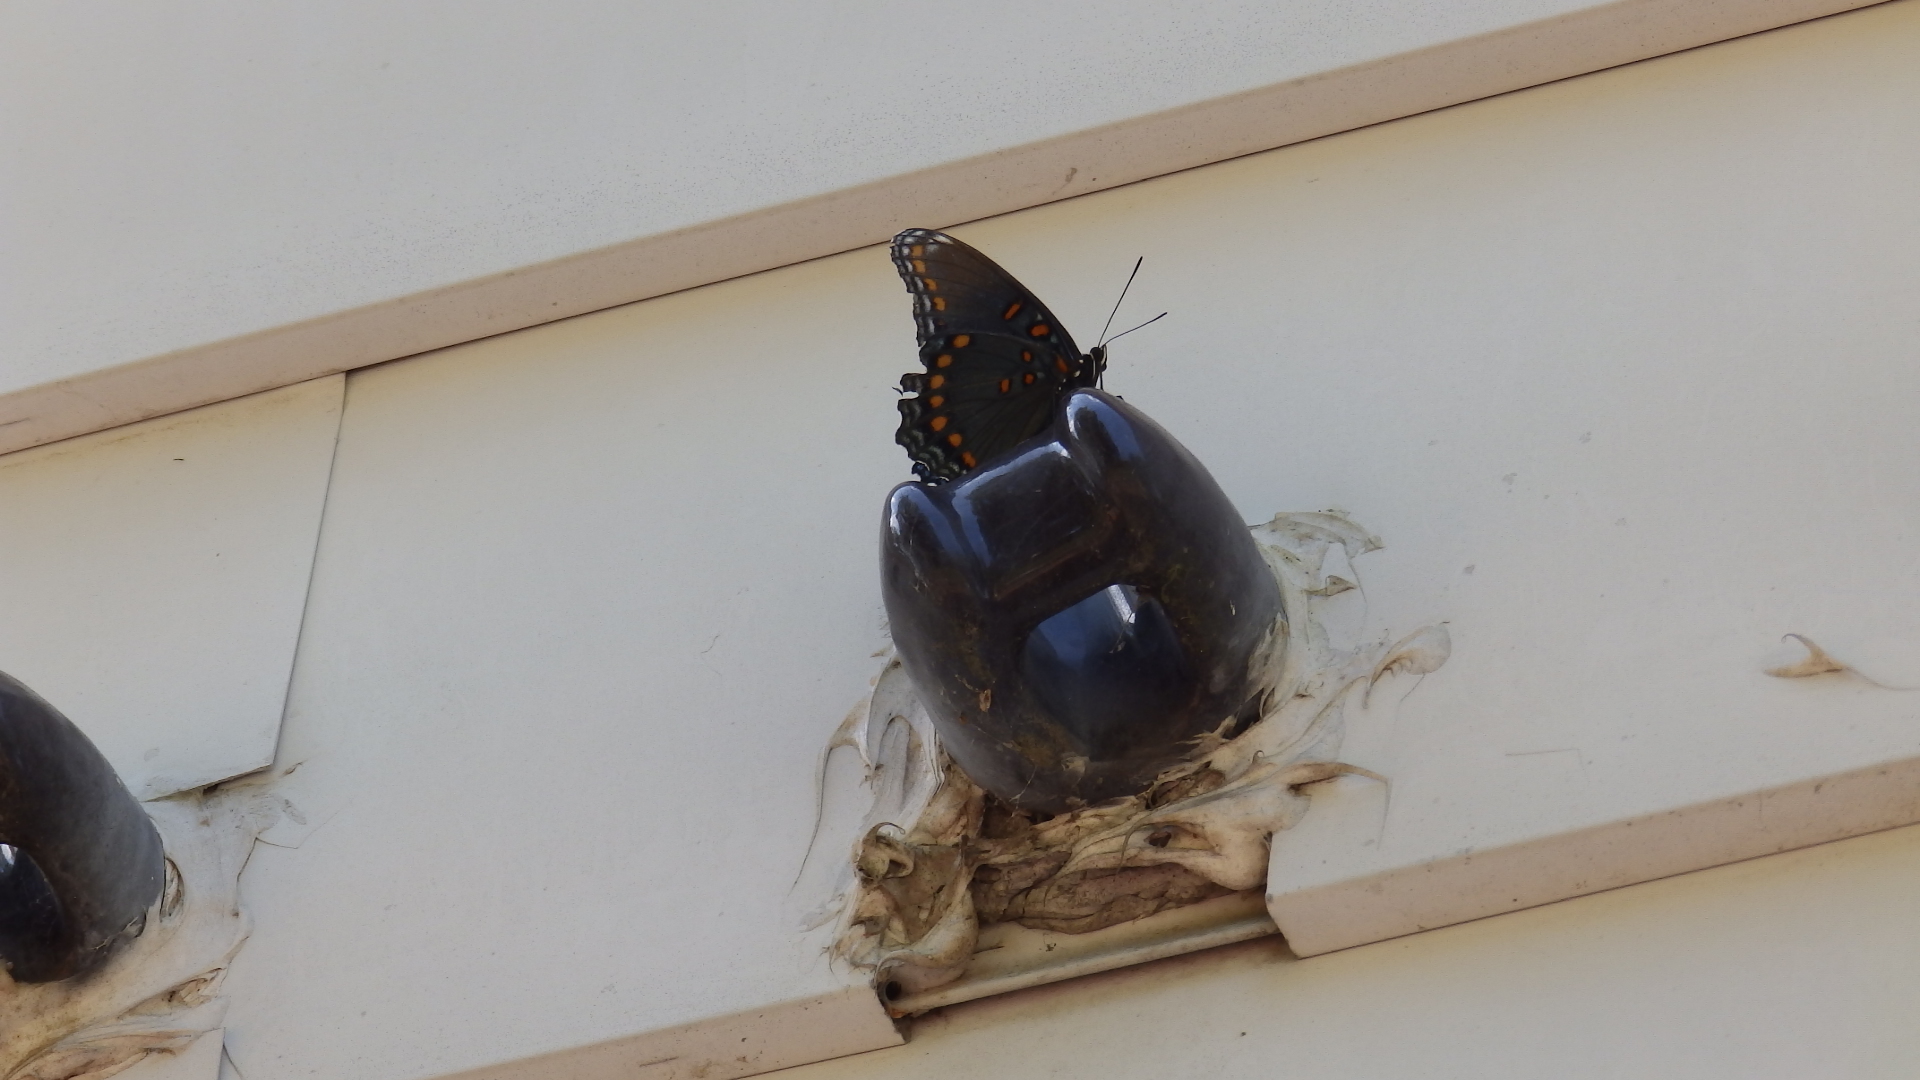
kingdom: Animalia
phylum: Arthropoda
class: Insecta
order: Lepidoptera
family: Nymphalidae
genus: Limenitis
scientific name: Limenitis astyanax
